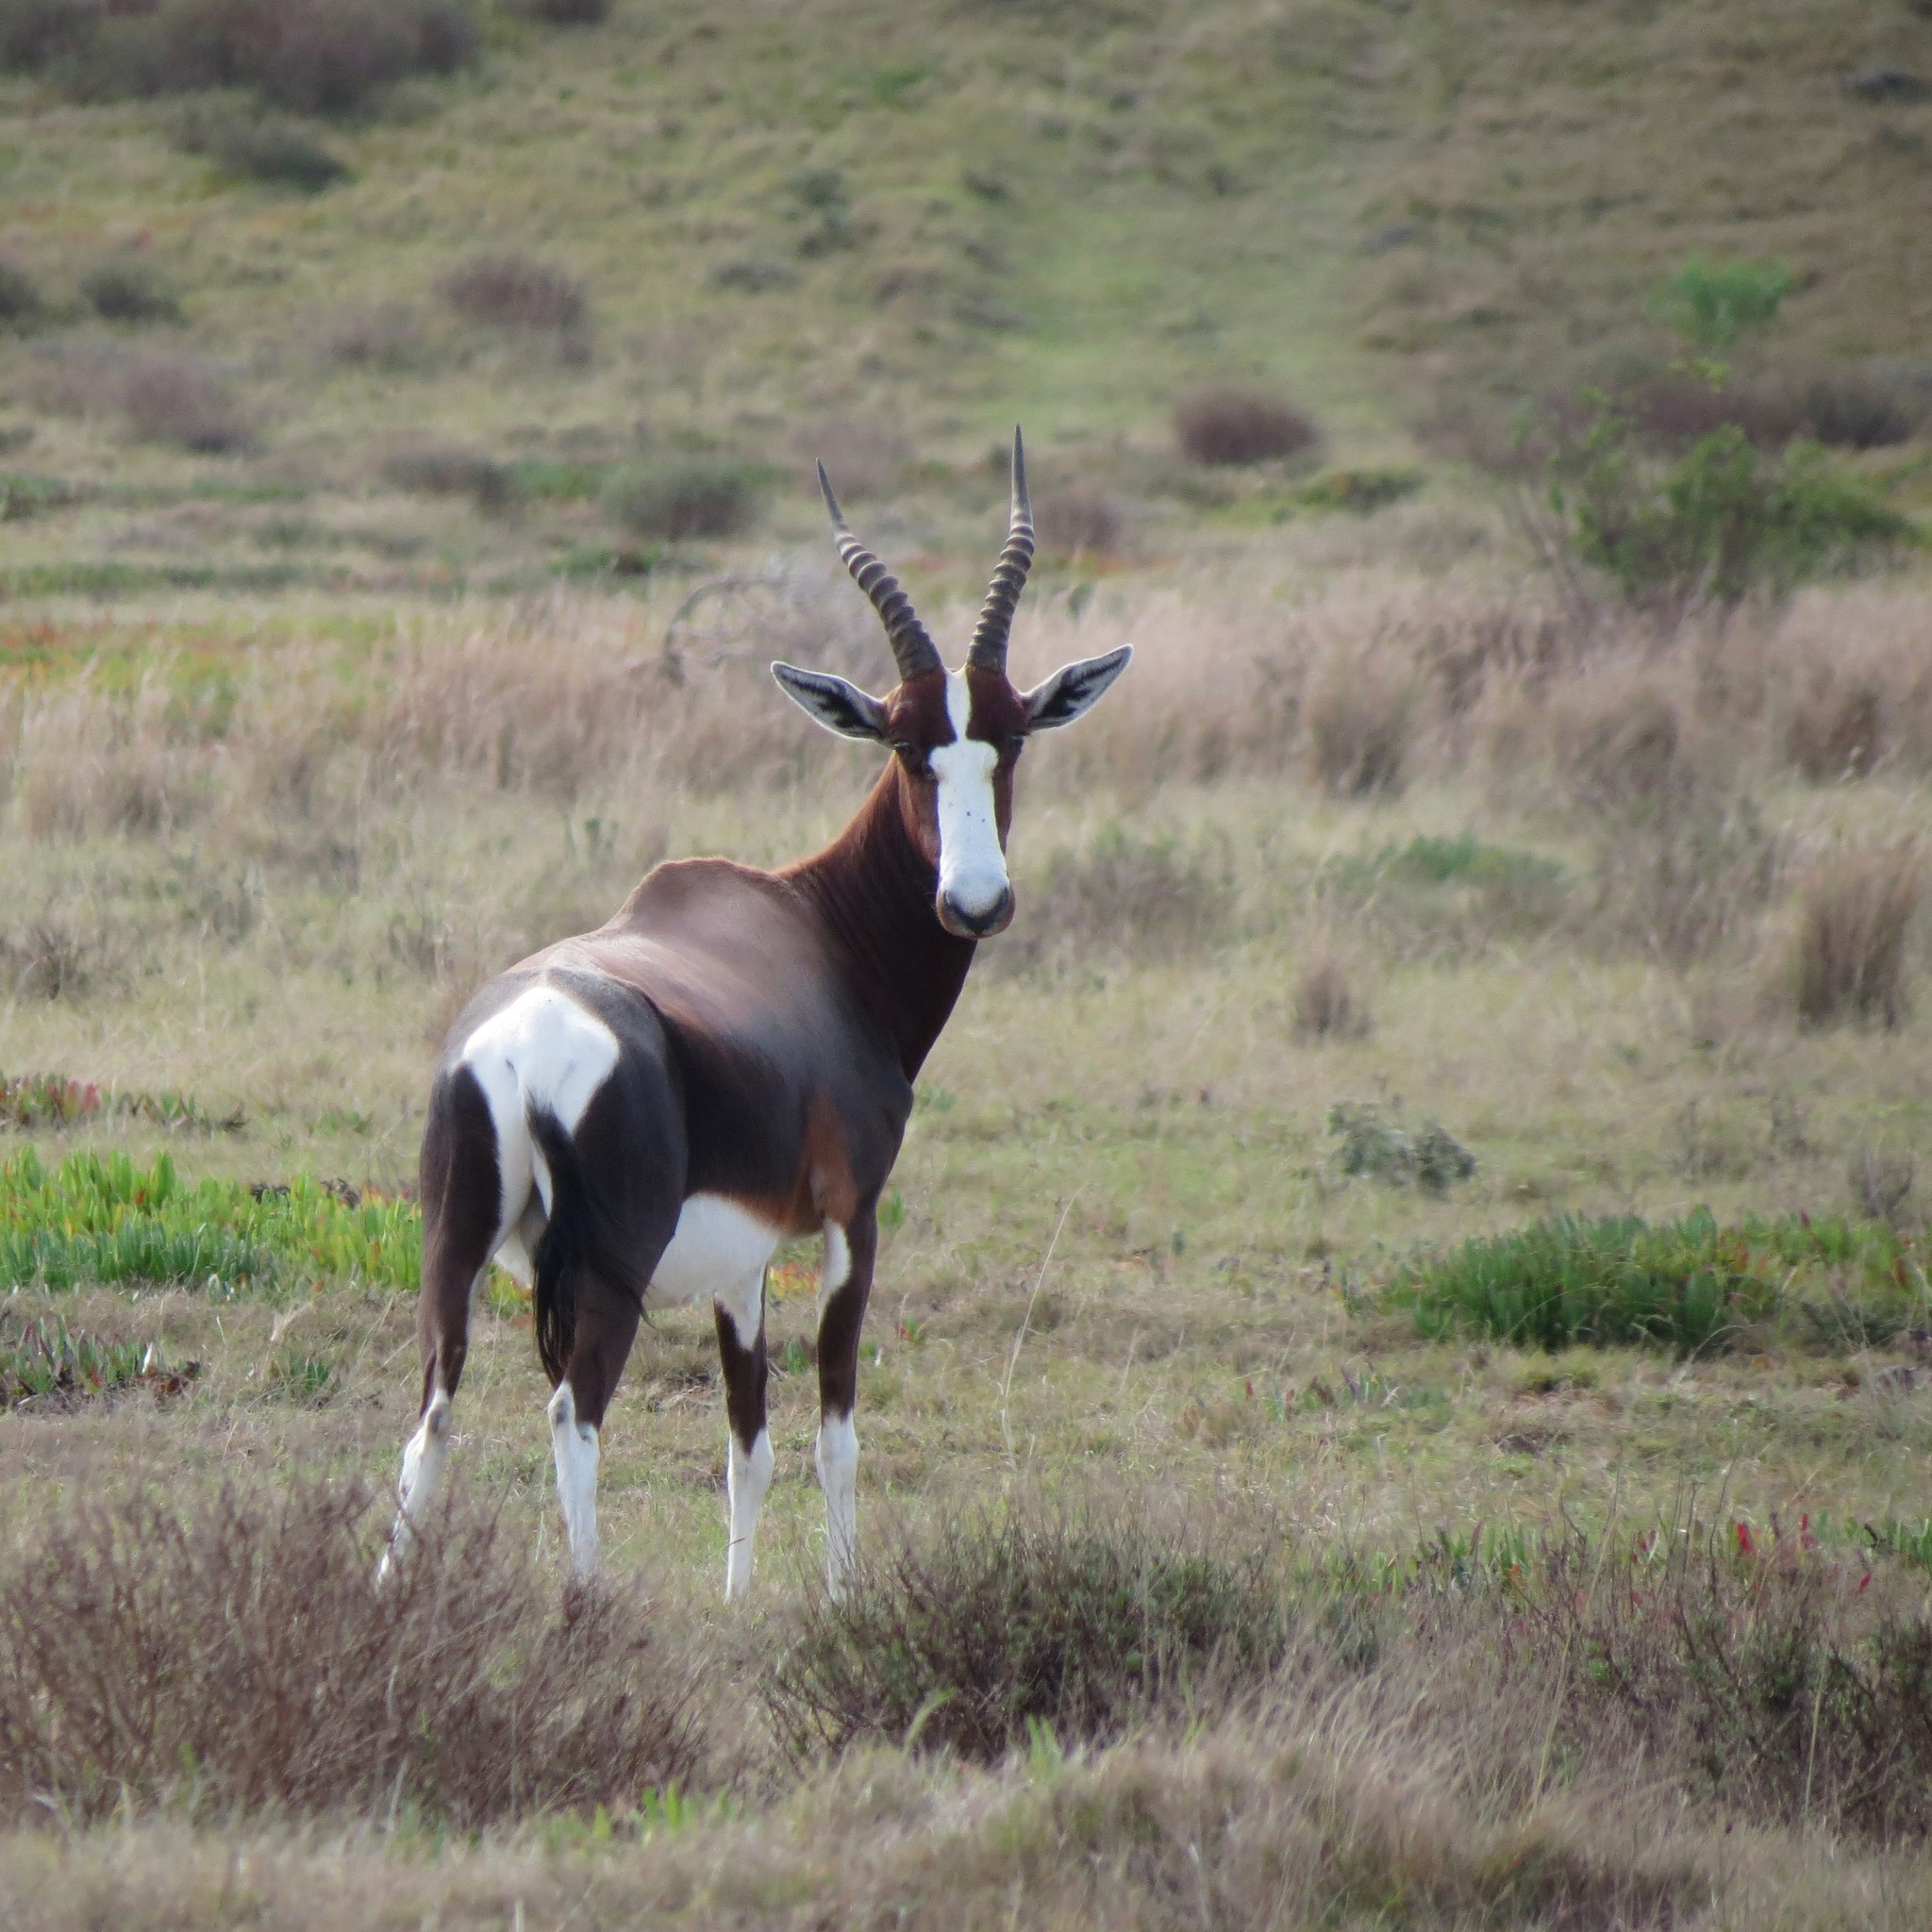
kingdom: Animalia
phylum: Chordata
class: Mammalia
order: Artiodactyla
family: Bovidae
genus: Damaliscus
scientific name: Damaliscus pygargus
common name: Bontebok
